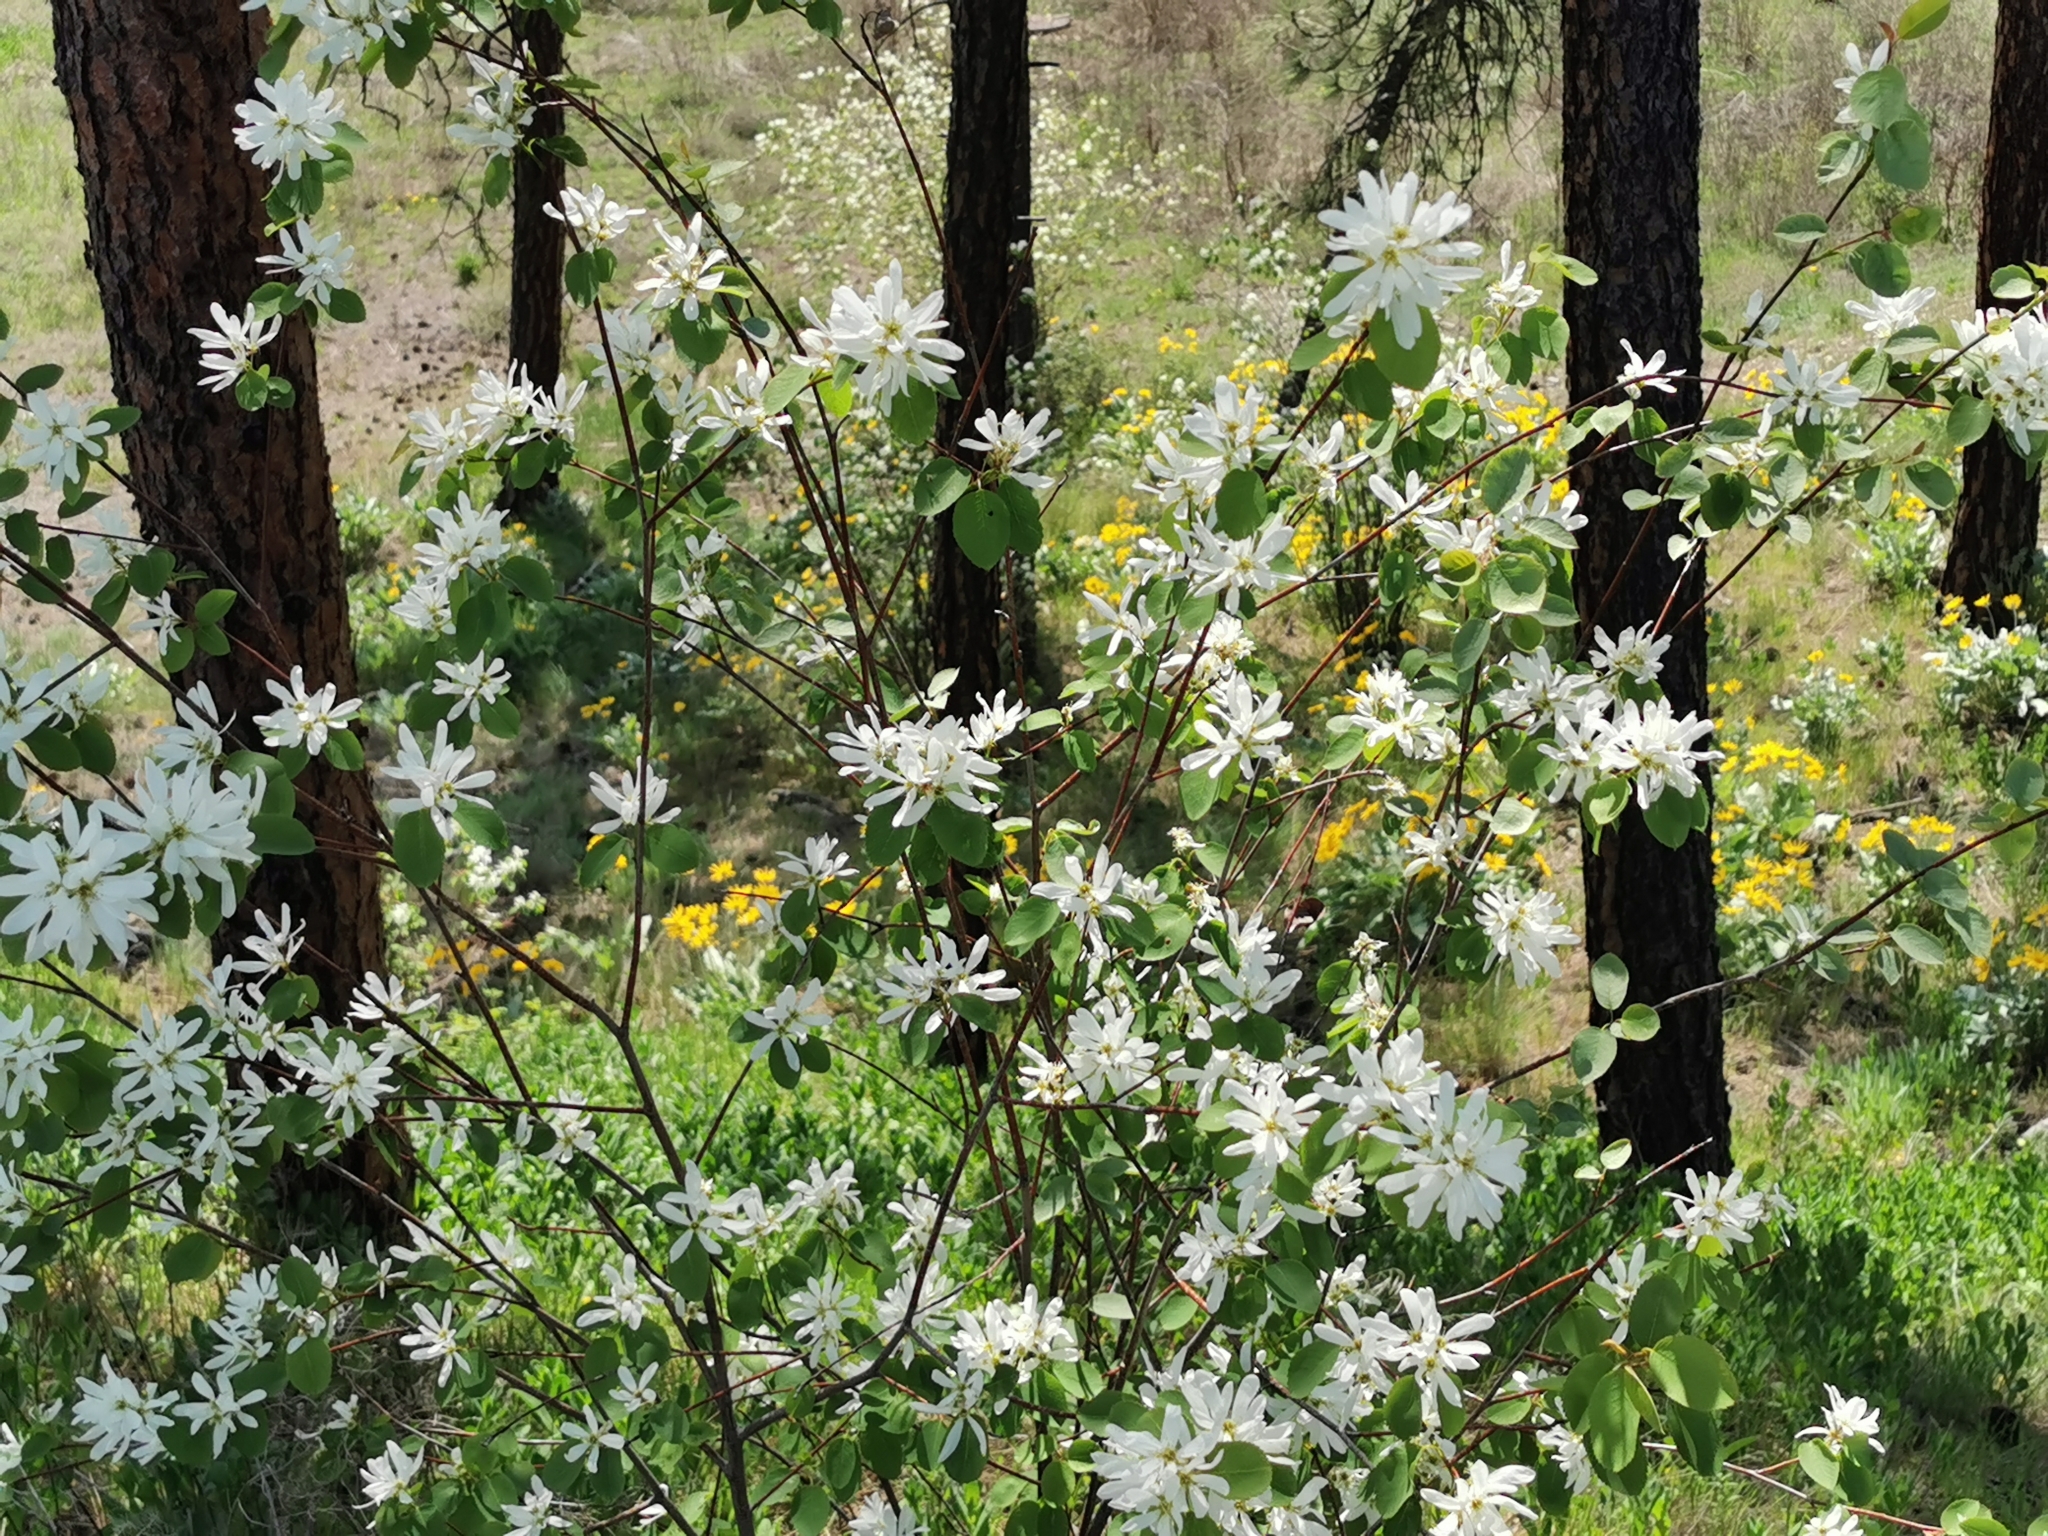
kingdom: Plantae
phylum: Tracheophyta
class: Magnoliopsida
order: Rosales
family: Rosaceae
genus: Amelanchier
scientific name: Amelanchier alnifolia
